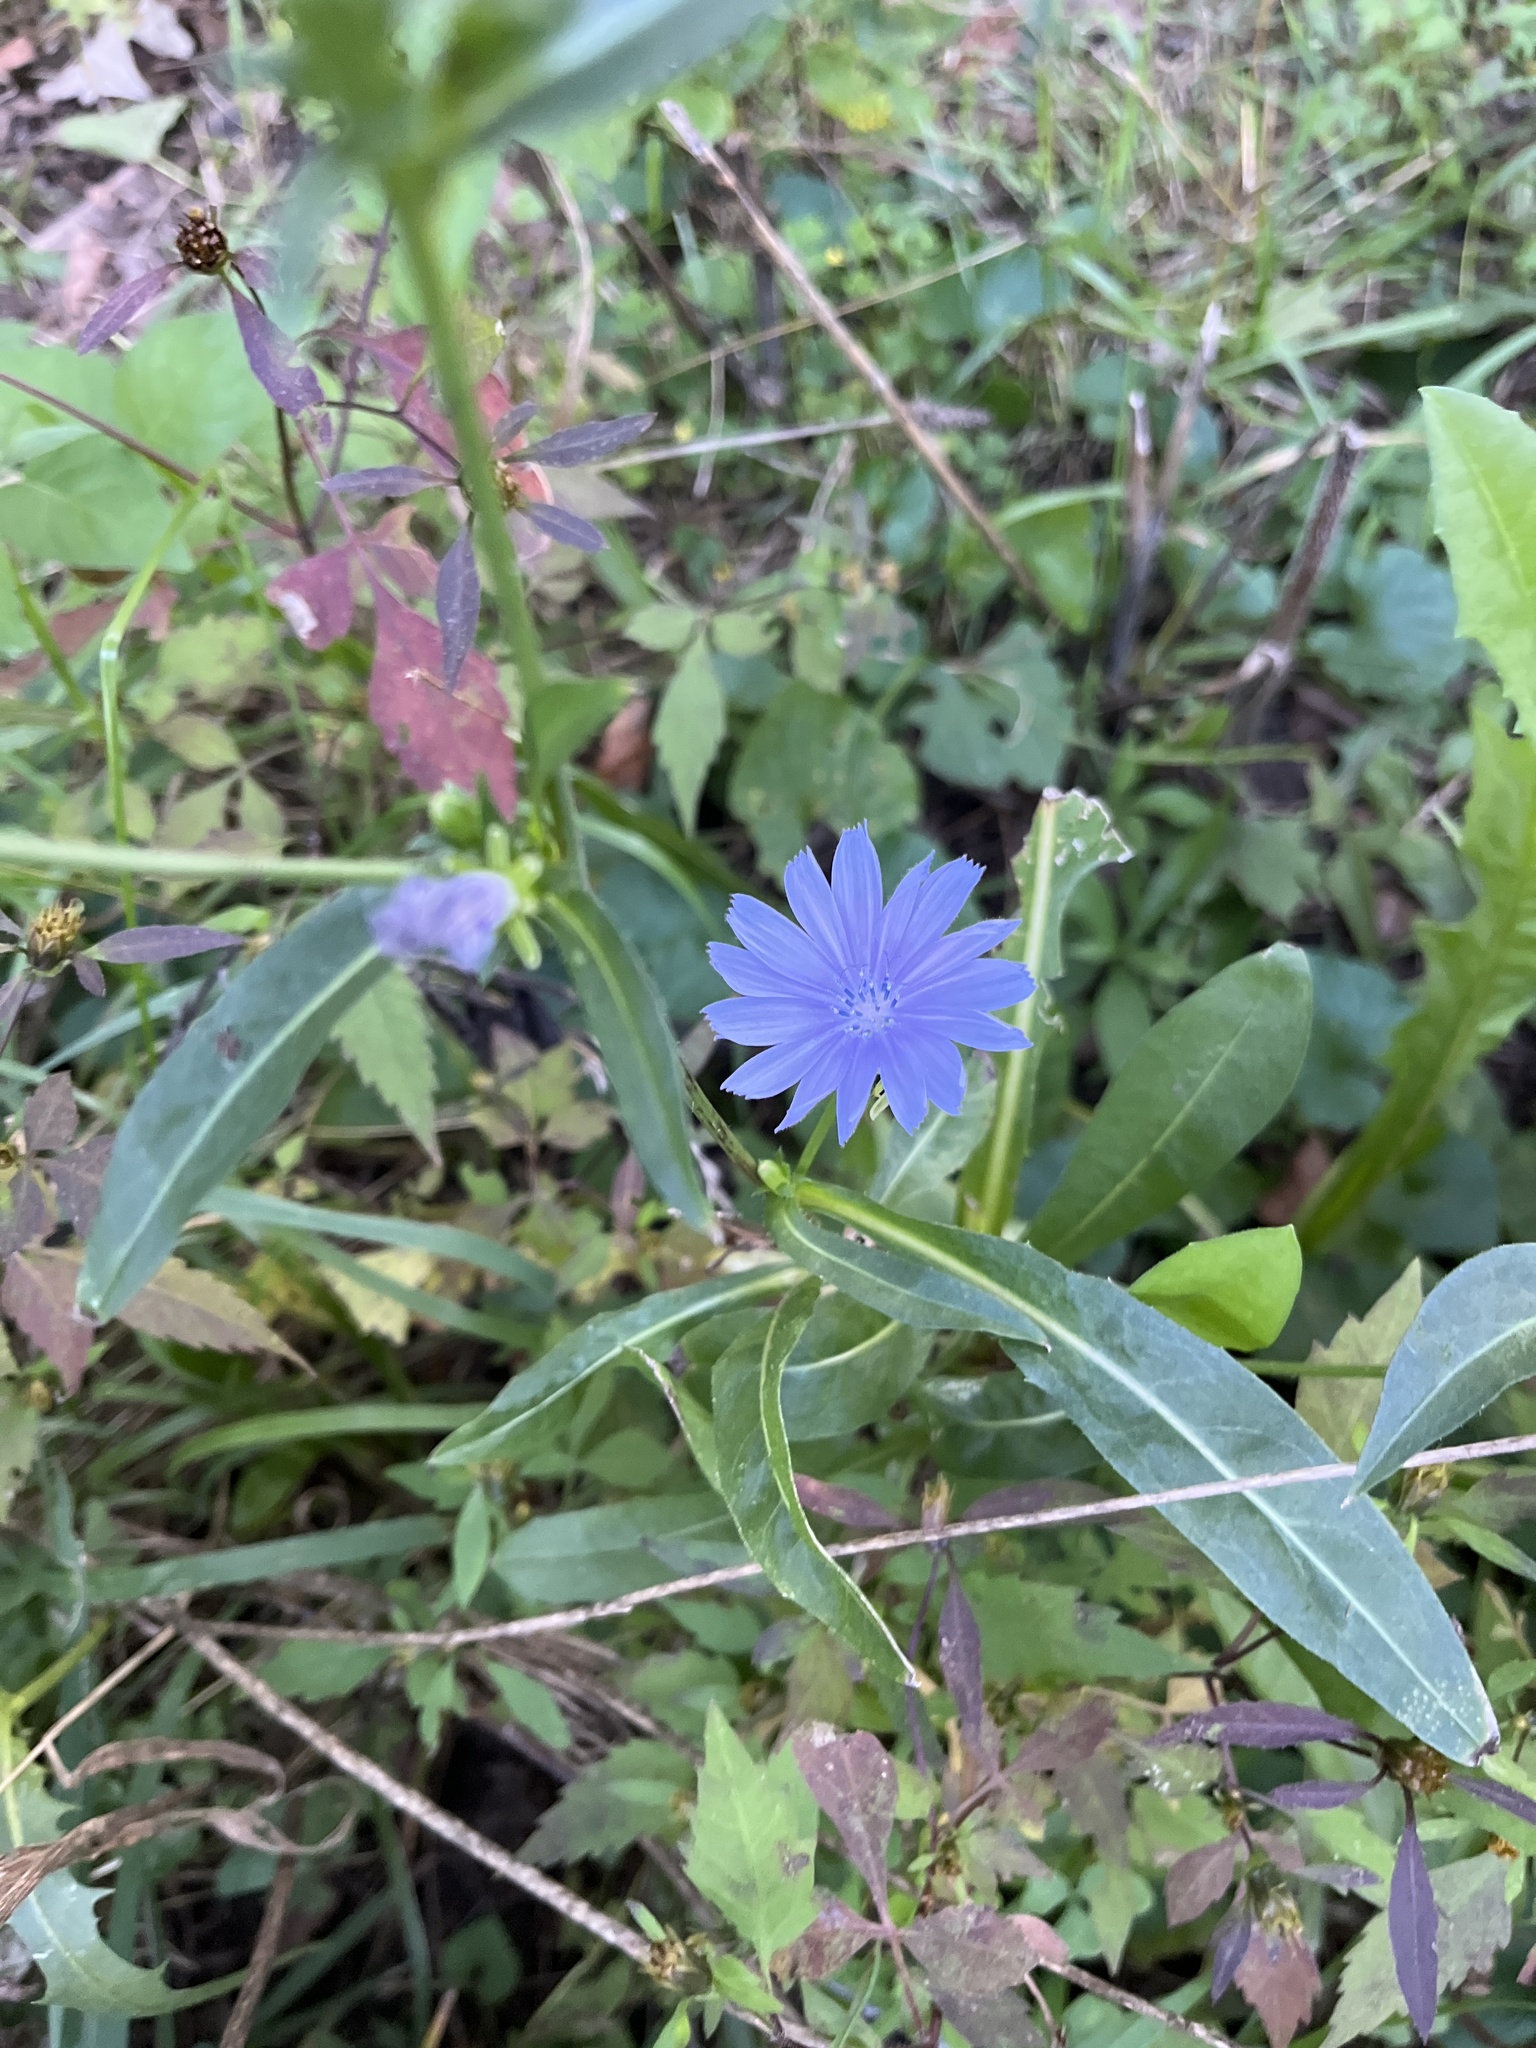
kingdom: Plantae
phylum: Tracheophyta
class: Magnoliopsida
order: Asterales
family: Asteraceae
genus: Cichorium
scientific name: Cichorium intybus
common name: Chicory
